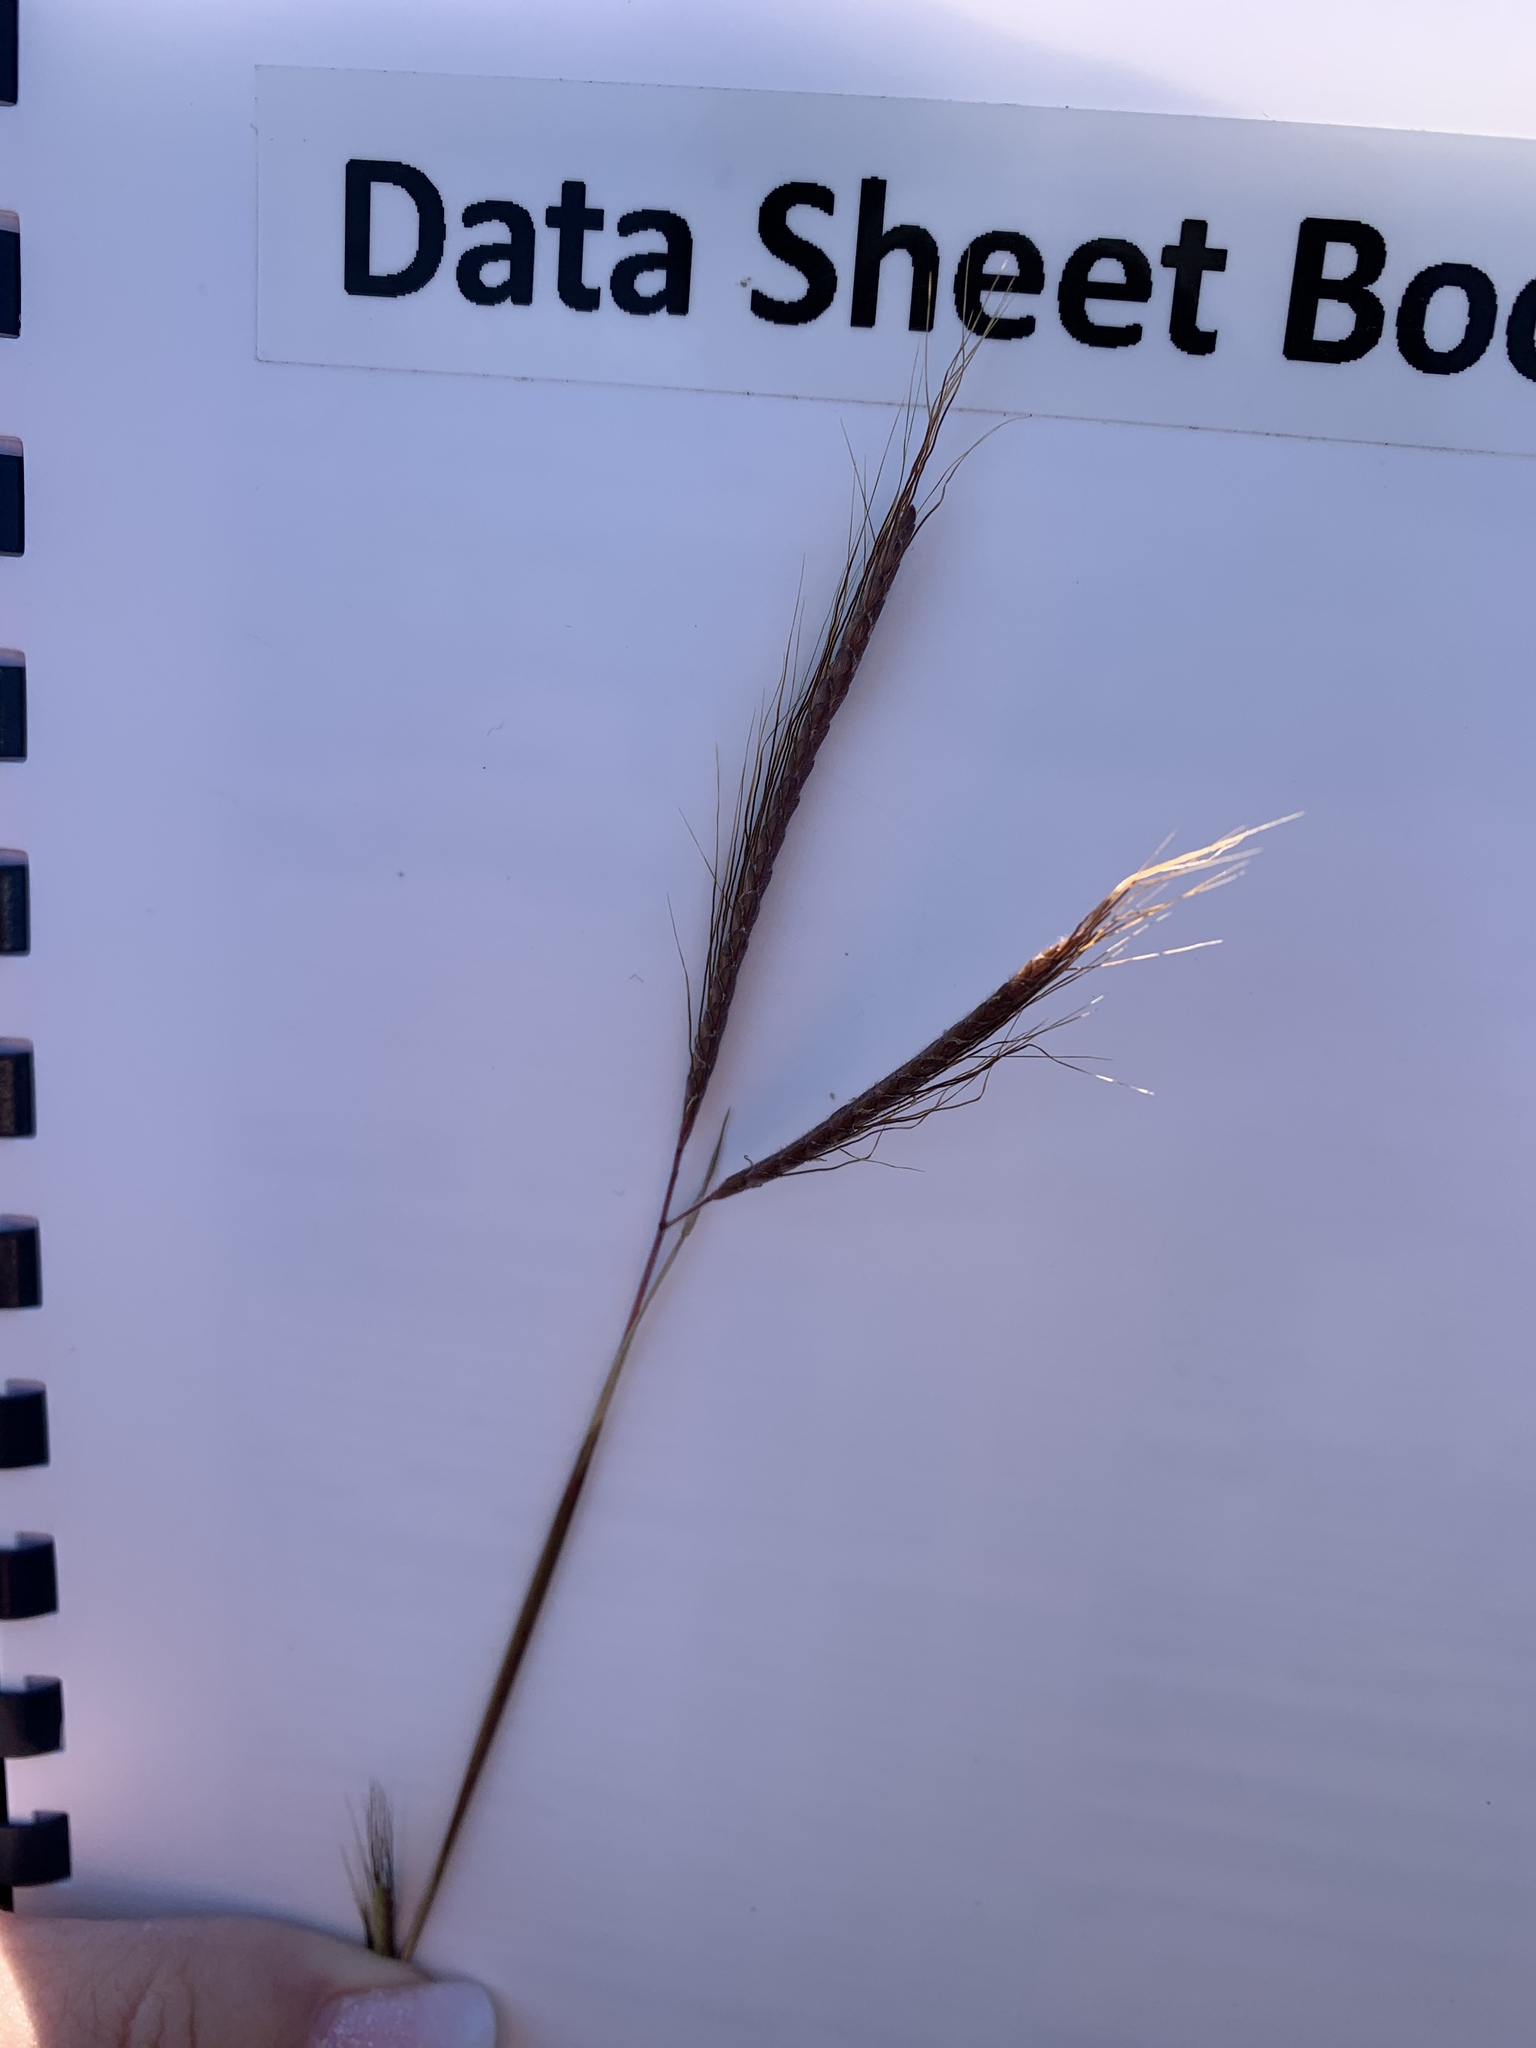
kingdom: Plantae
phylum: Tracheophyta
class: Liliopsida
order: Poales
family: Poaceae
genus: Dichanthium
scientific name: Dichanthium aristatum
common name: Angleton bluestem
